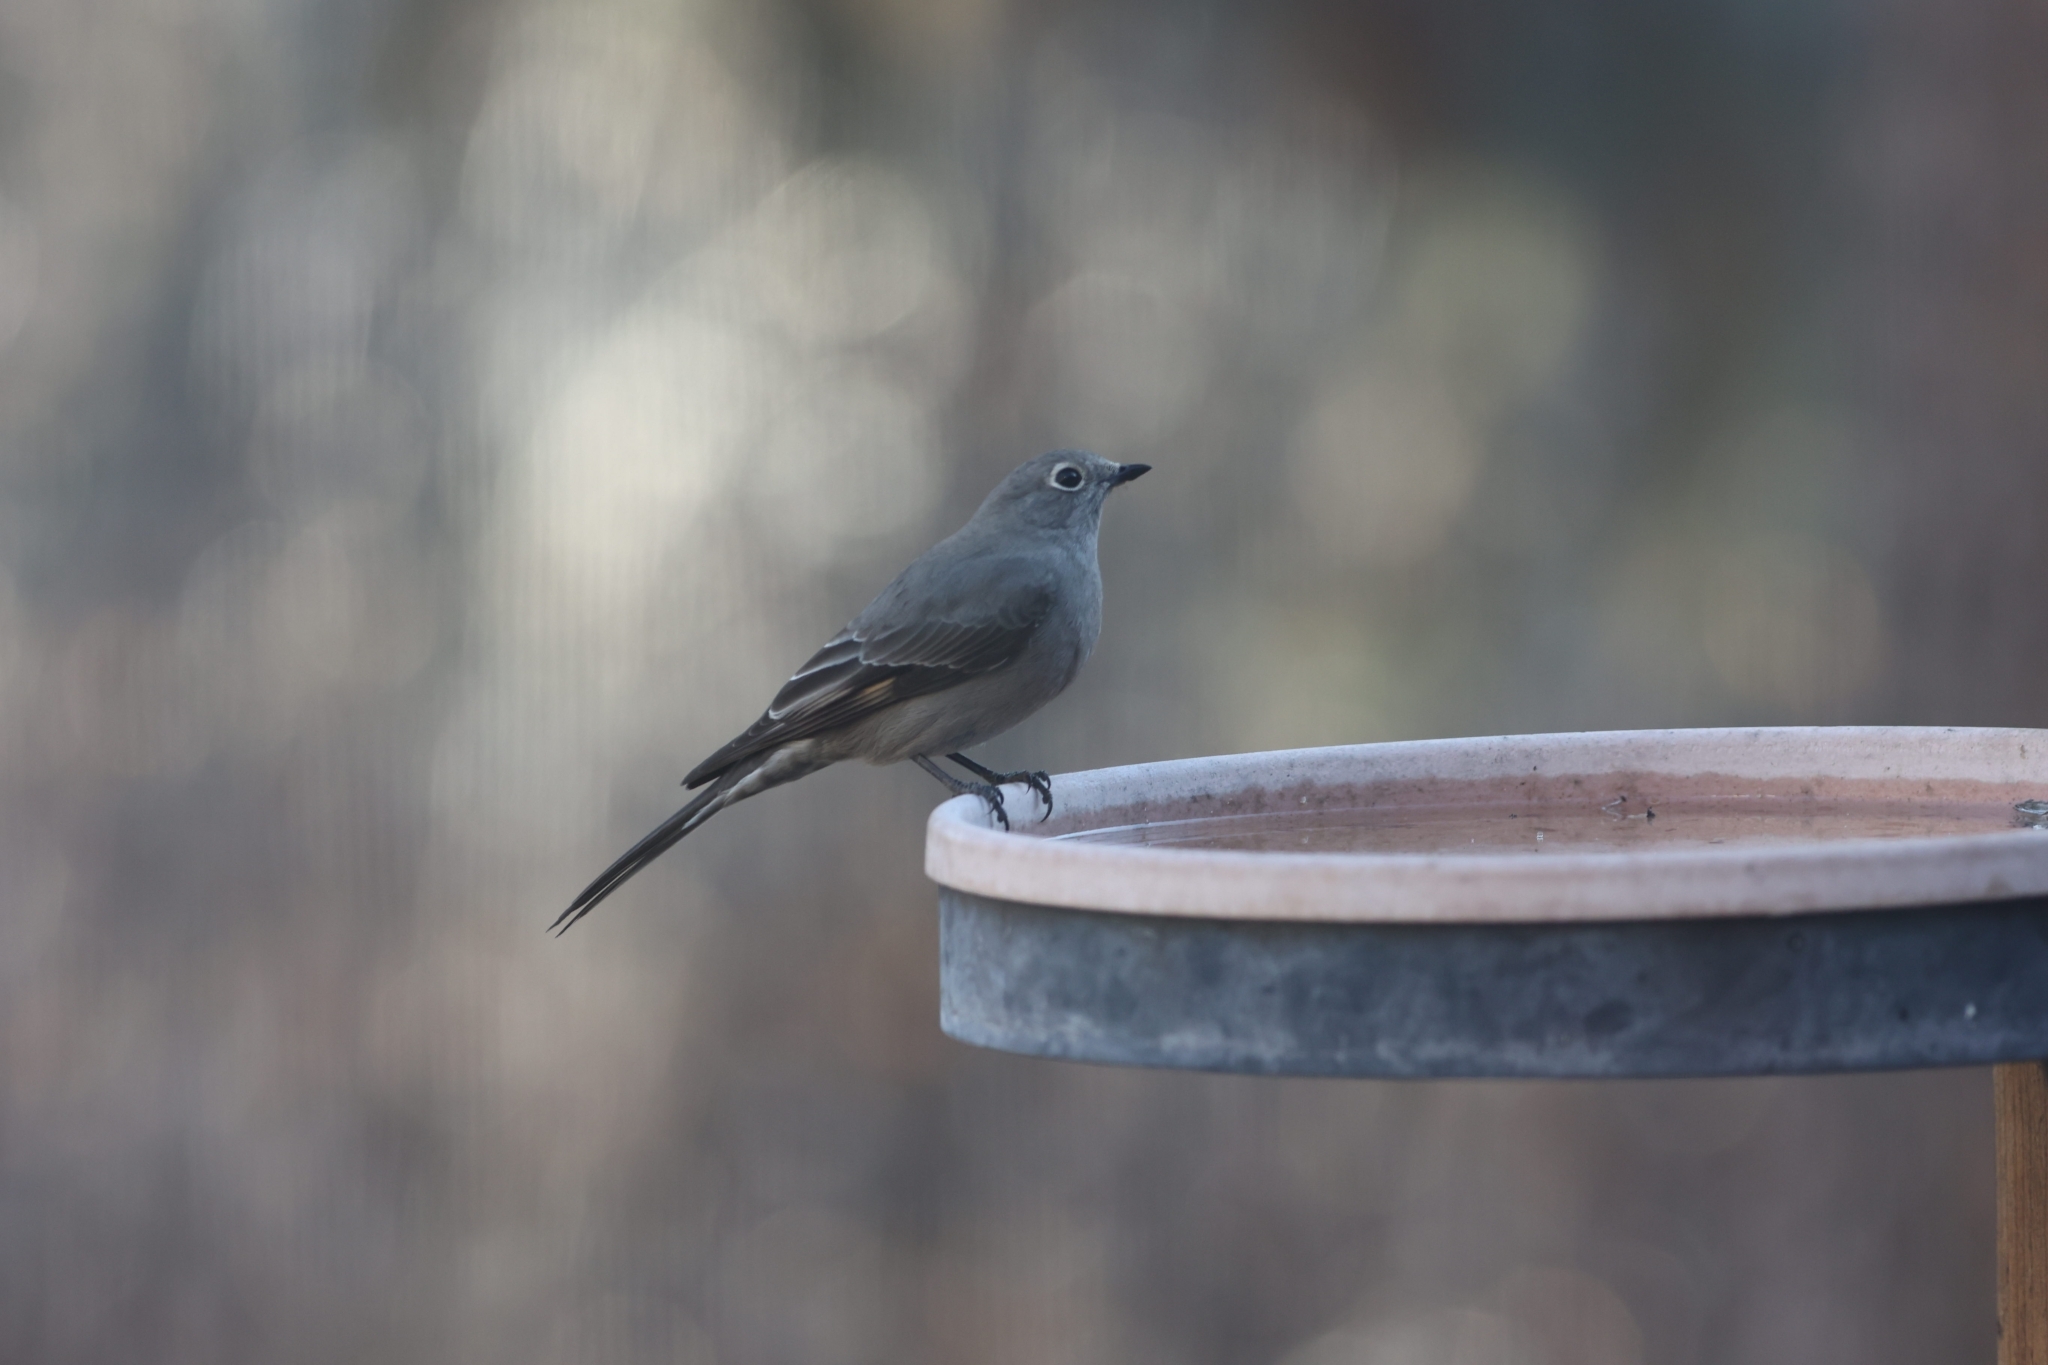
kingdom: Animalia
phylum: Chordata
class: Aves
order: Passeriformes
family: Turdidae
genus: Myadestes
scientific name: Myadestes townsendi
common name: Townsend's solitaire
